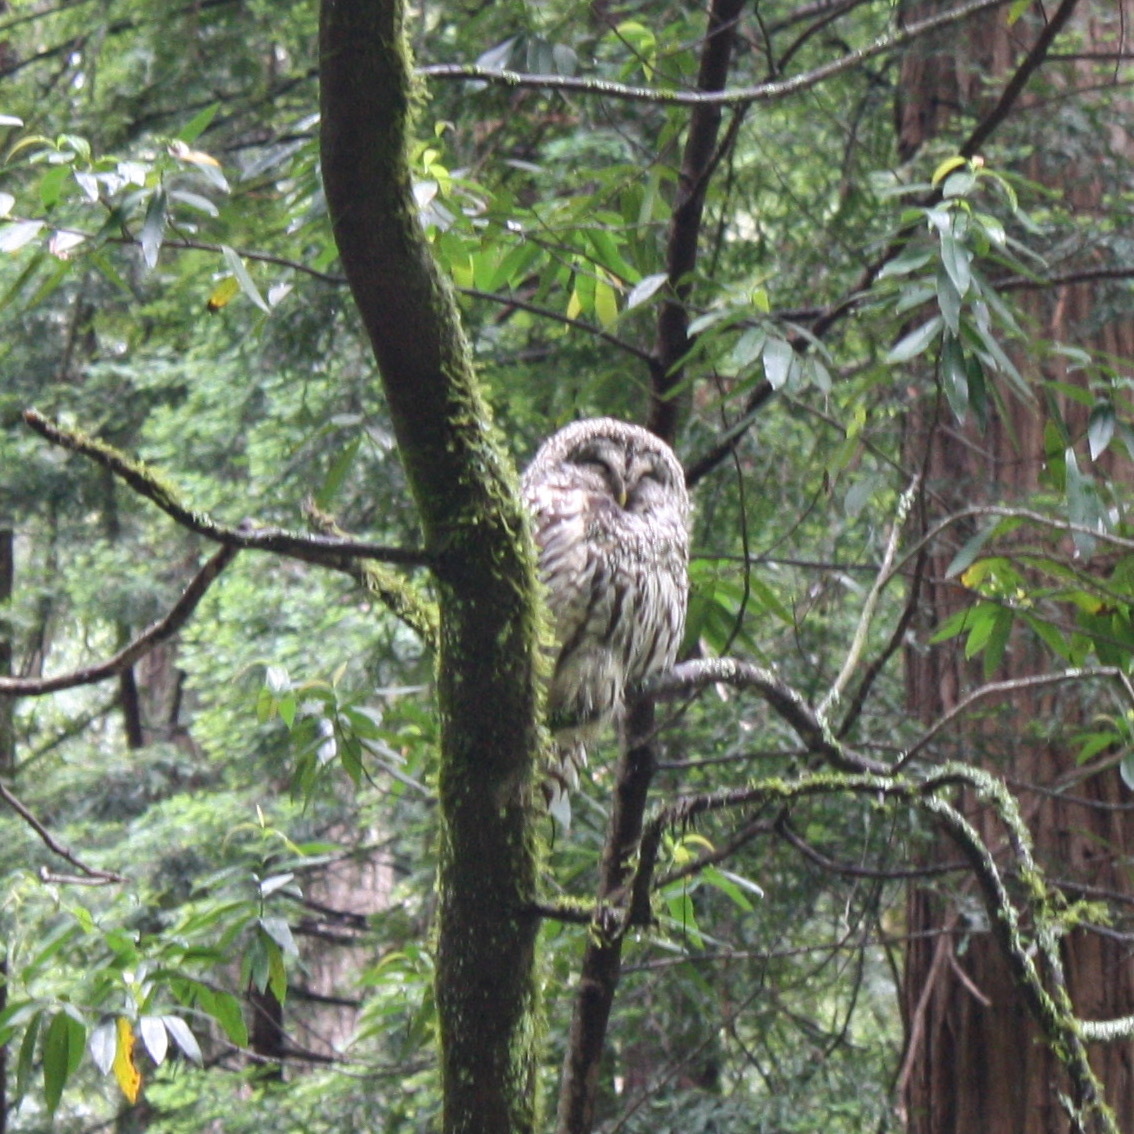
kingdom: Animalia
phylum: Chordata
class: Aves
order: Strigiformes
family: Strigidae
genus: Strix
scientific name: Strix varia
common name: Barred owl
